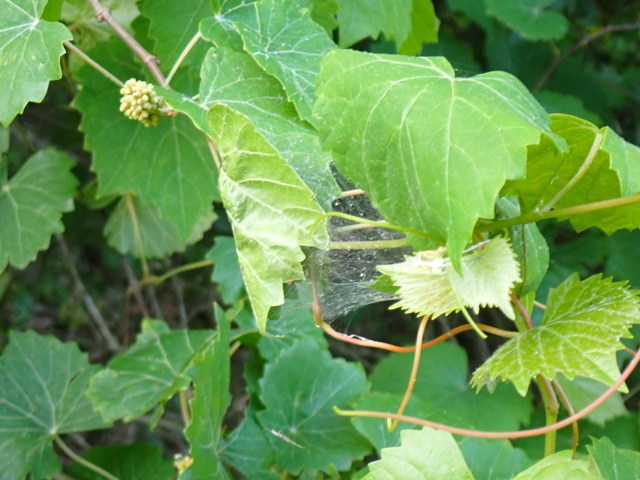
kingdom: Plantae
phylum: Tracheophyta
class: Magnoliopsida
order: Vitales
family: Vitaceae
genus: Vitis
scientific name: Vitis rotundifolia
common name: Muscadine grape
